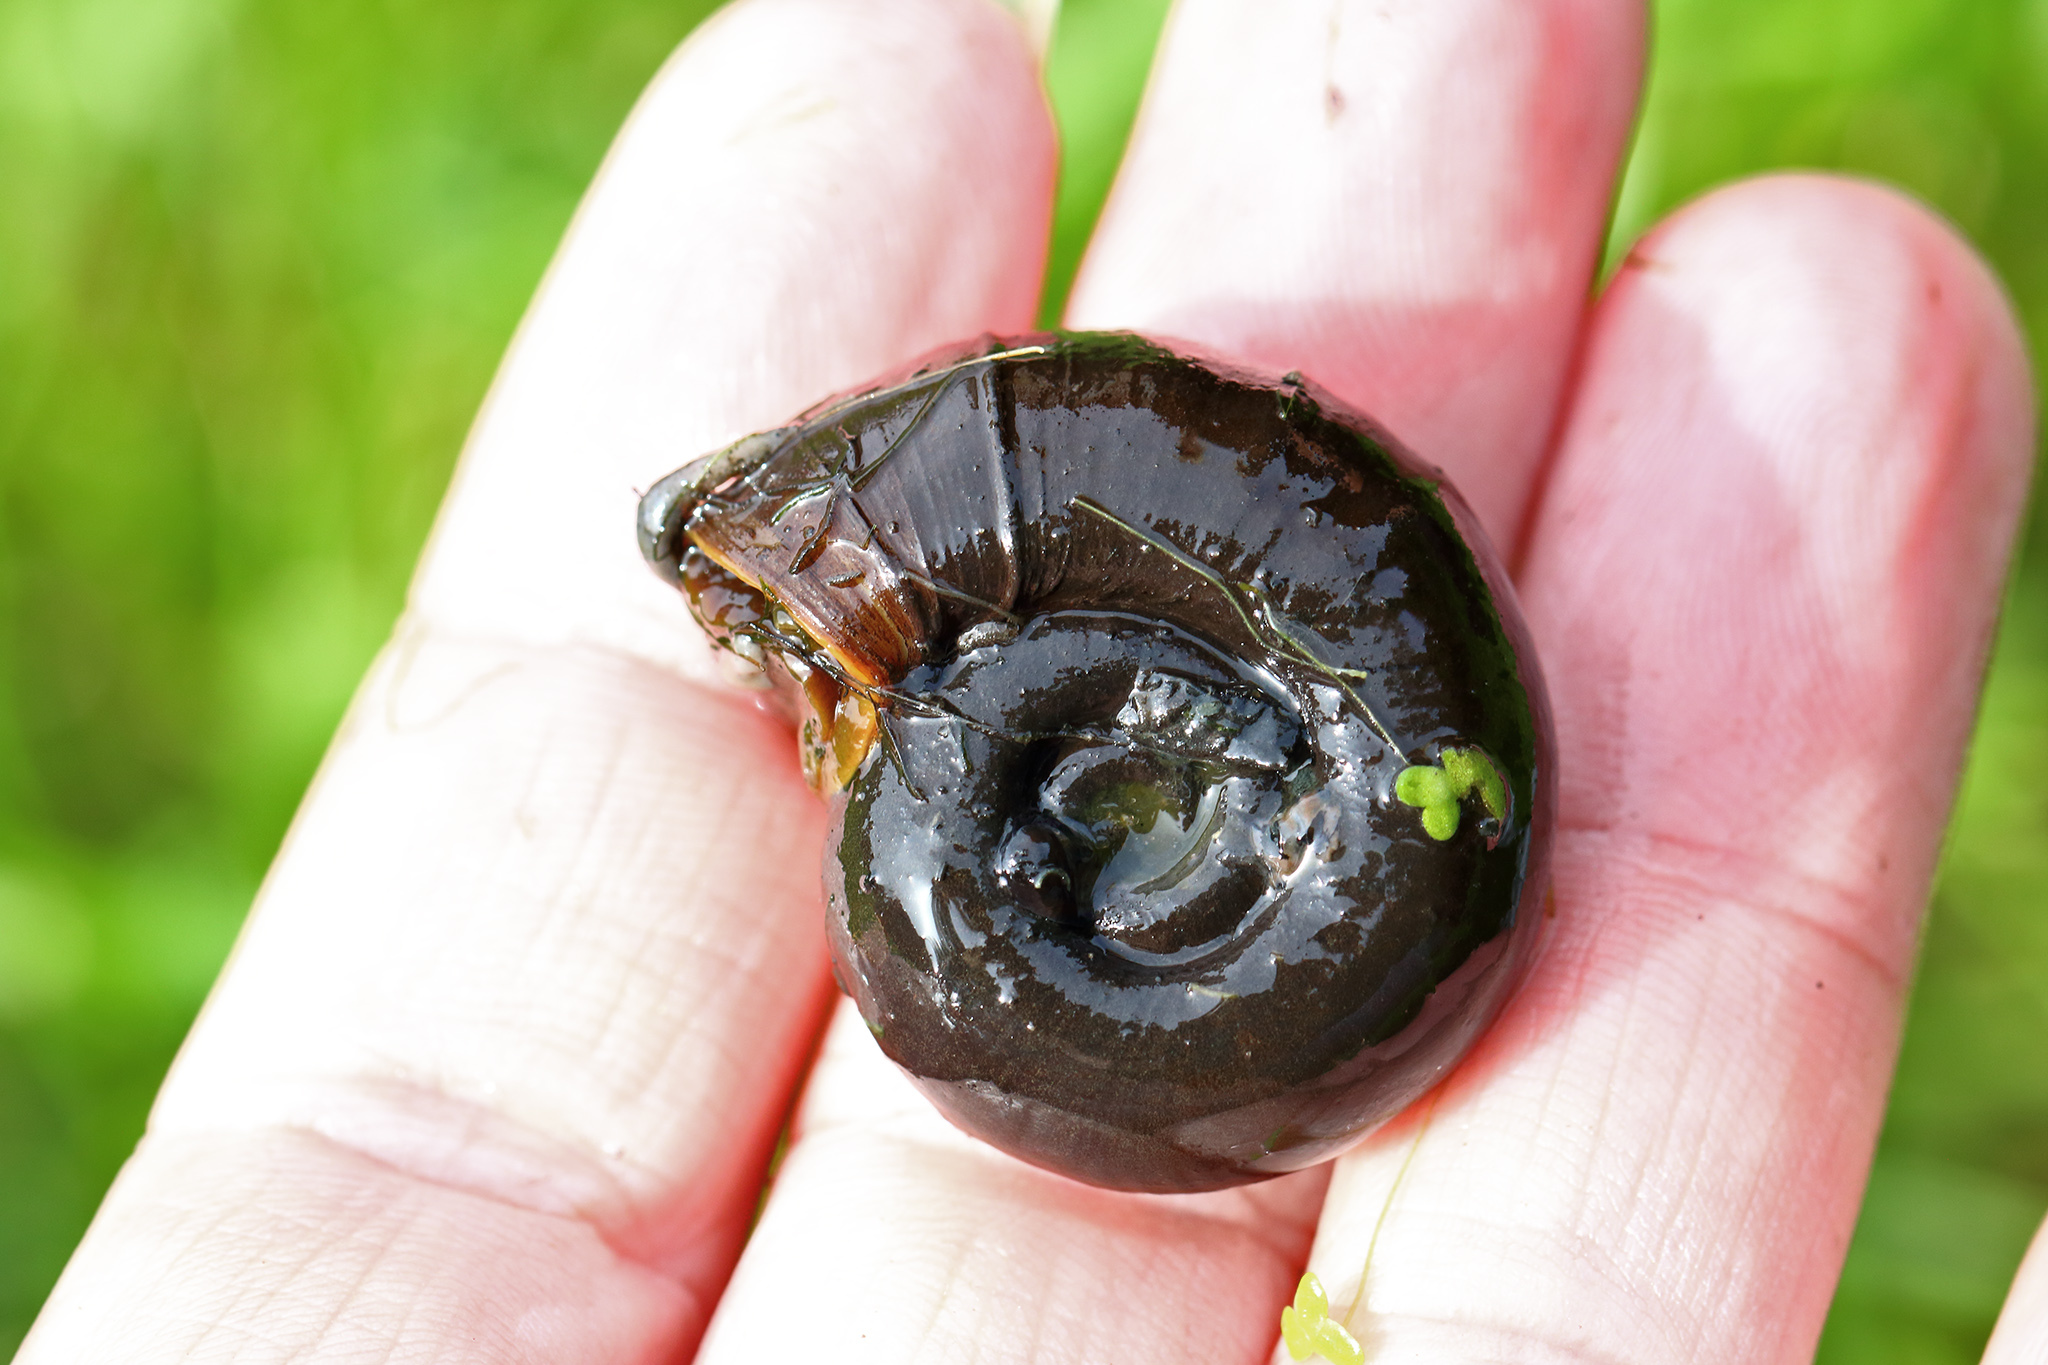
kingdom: Animalia
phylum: Mollusca
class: Gastropoda
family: Planorbidae
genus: Planorbarius
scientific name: Planorbarius corneus
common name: Great ramshorn
